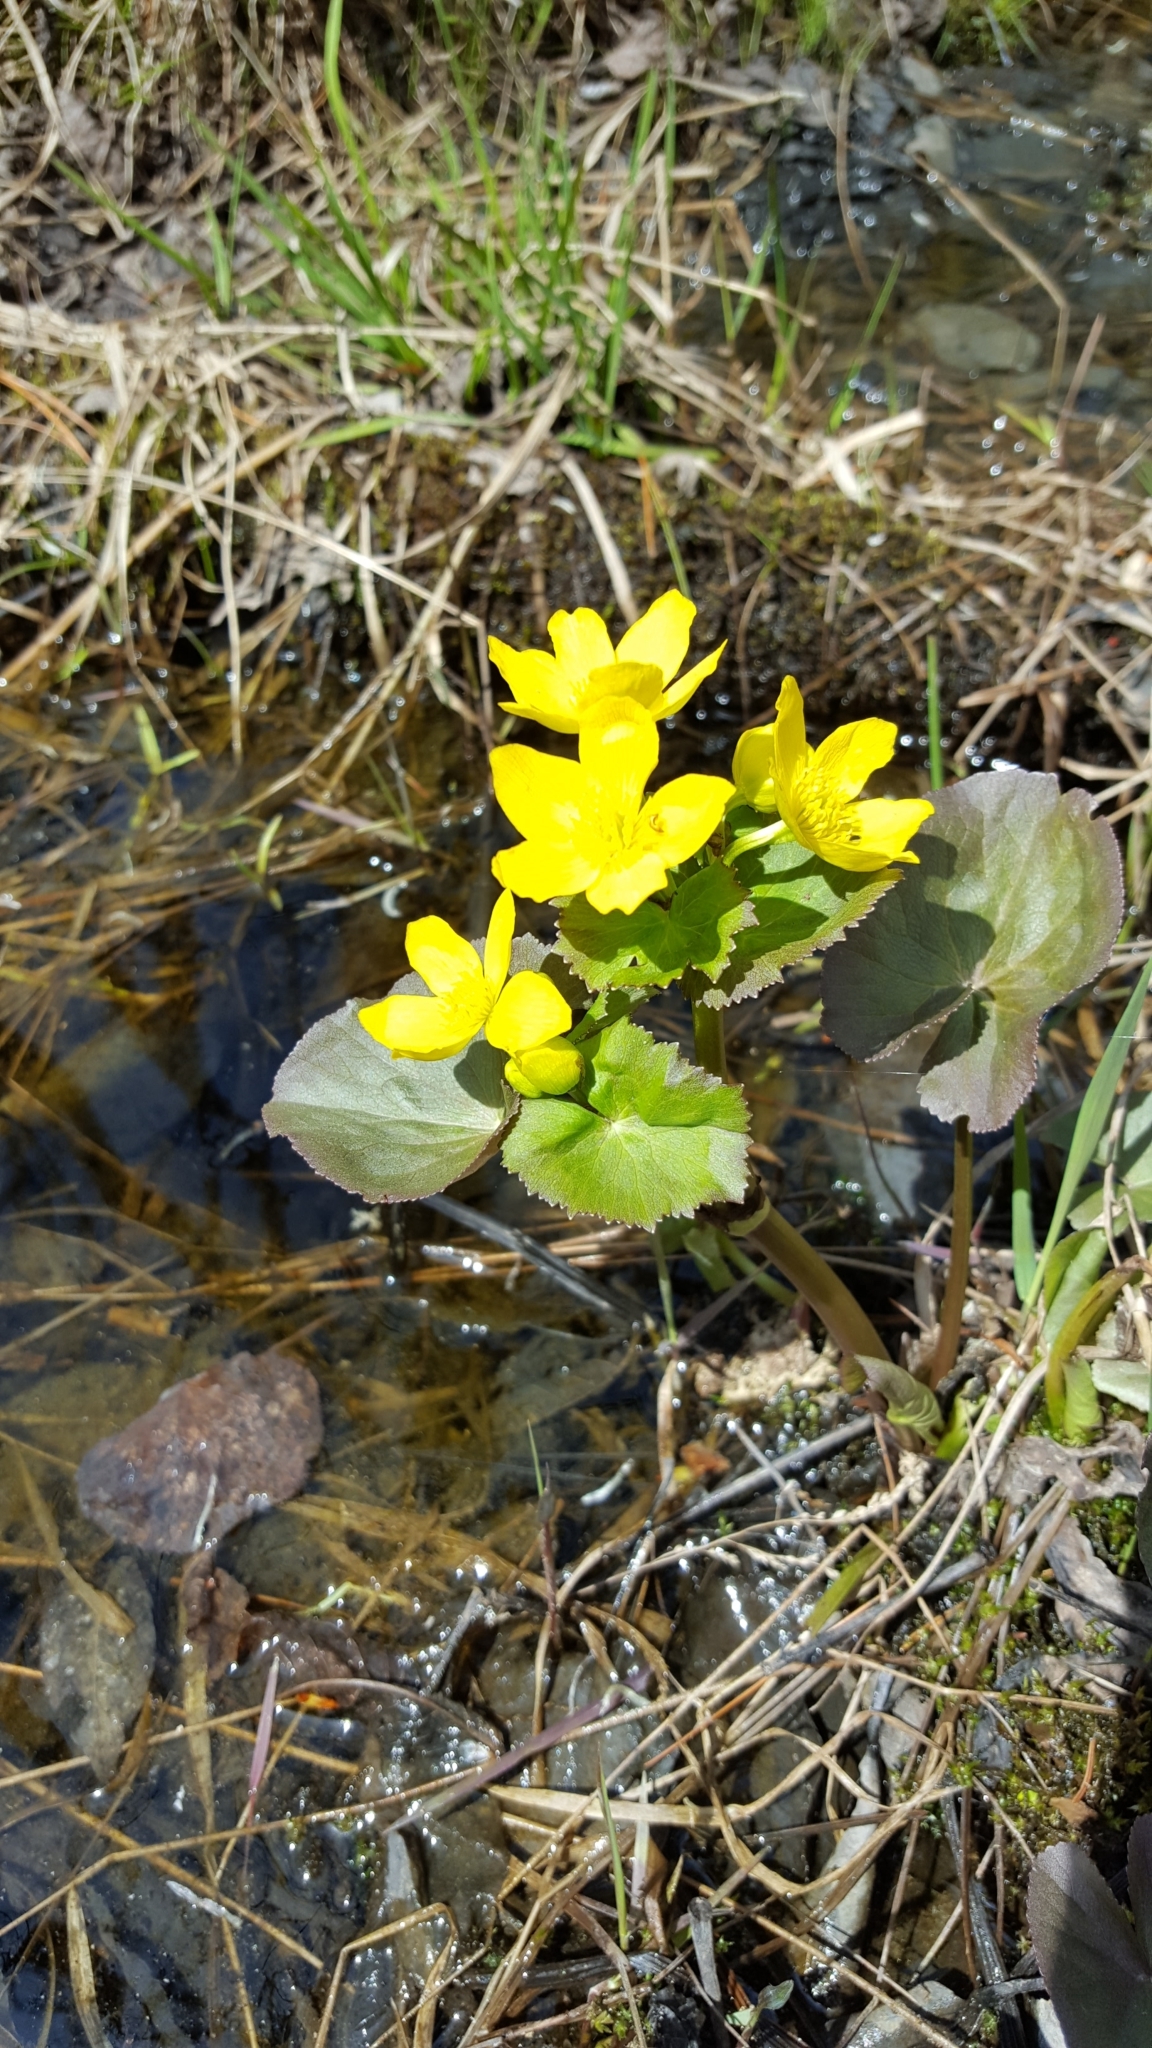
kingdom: Plantae
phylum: Tracheophyta
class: Magnoliopsida
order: Ranunculales
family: Ranunculaceae
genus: Caltha
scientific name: Caltha palustris
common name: Marsh marigold
